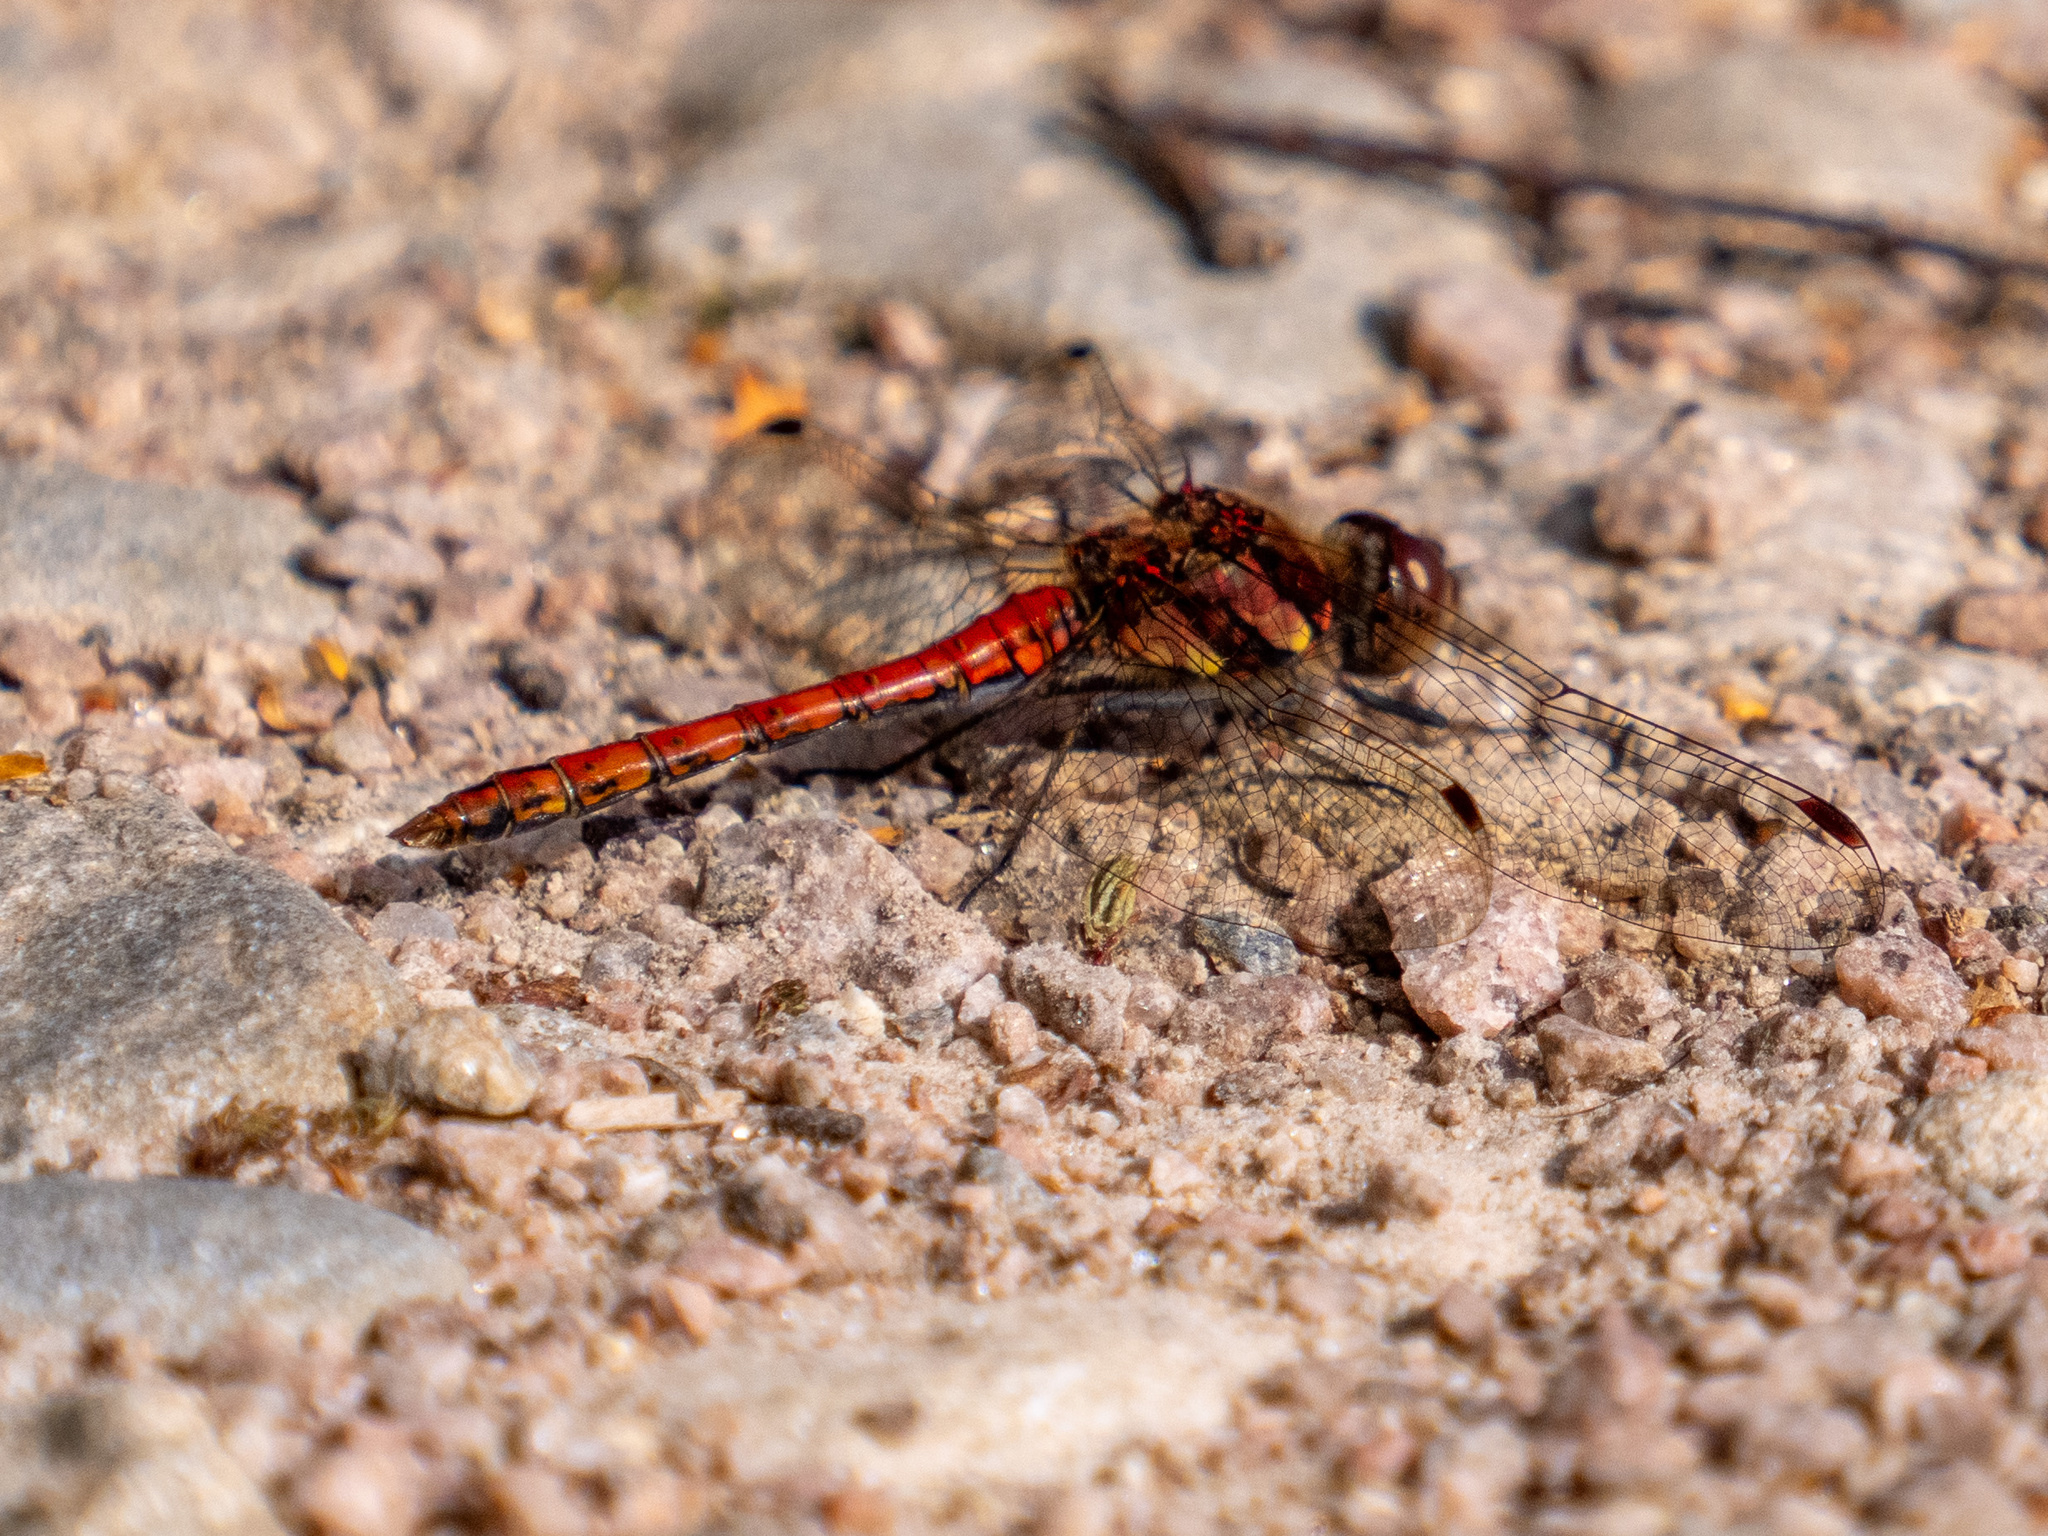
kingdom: Animalia
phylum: Arthropoda
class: Insecta
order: Odonata
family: Libellulidae
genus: Sympetrum
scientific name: Sympetrum striolatum
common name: Common darter
